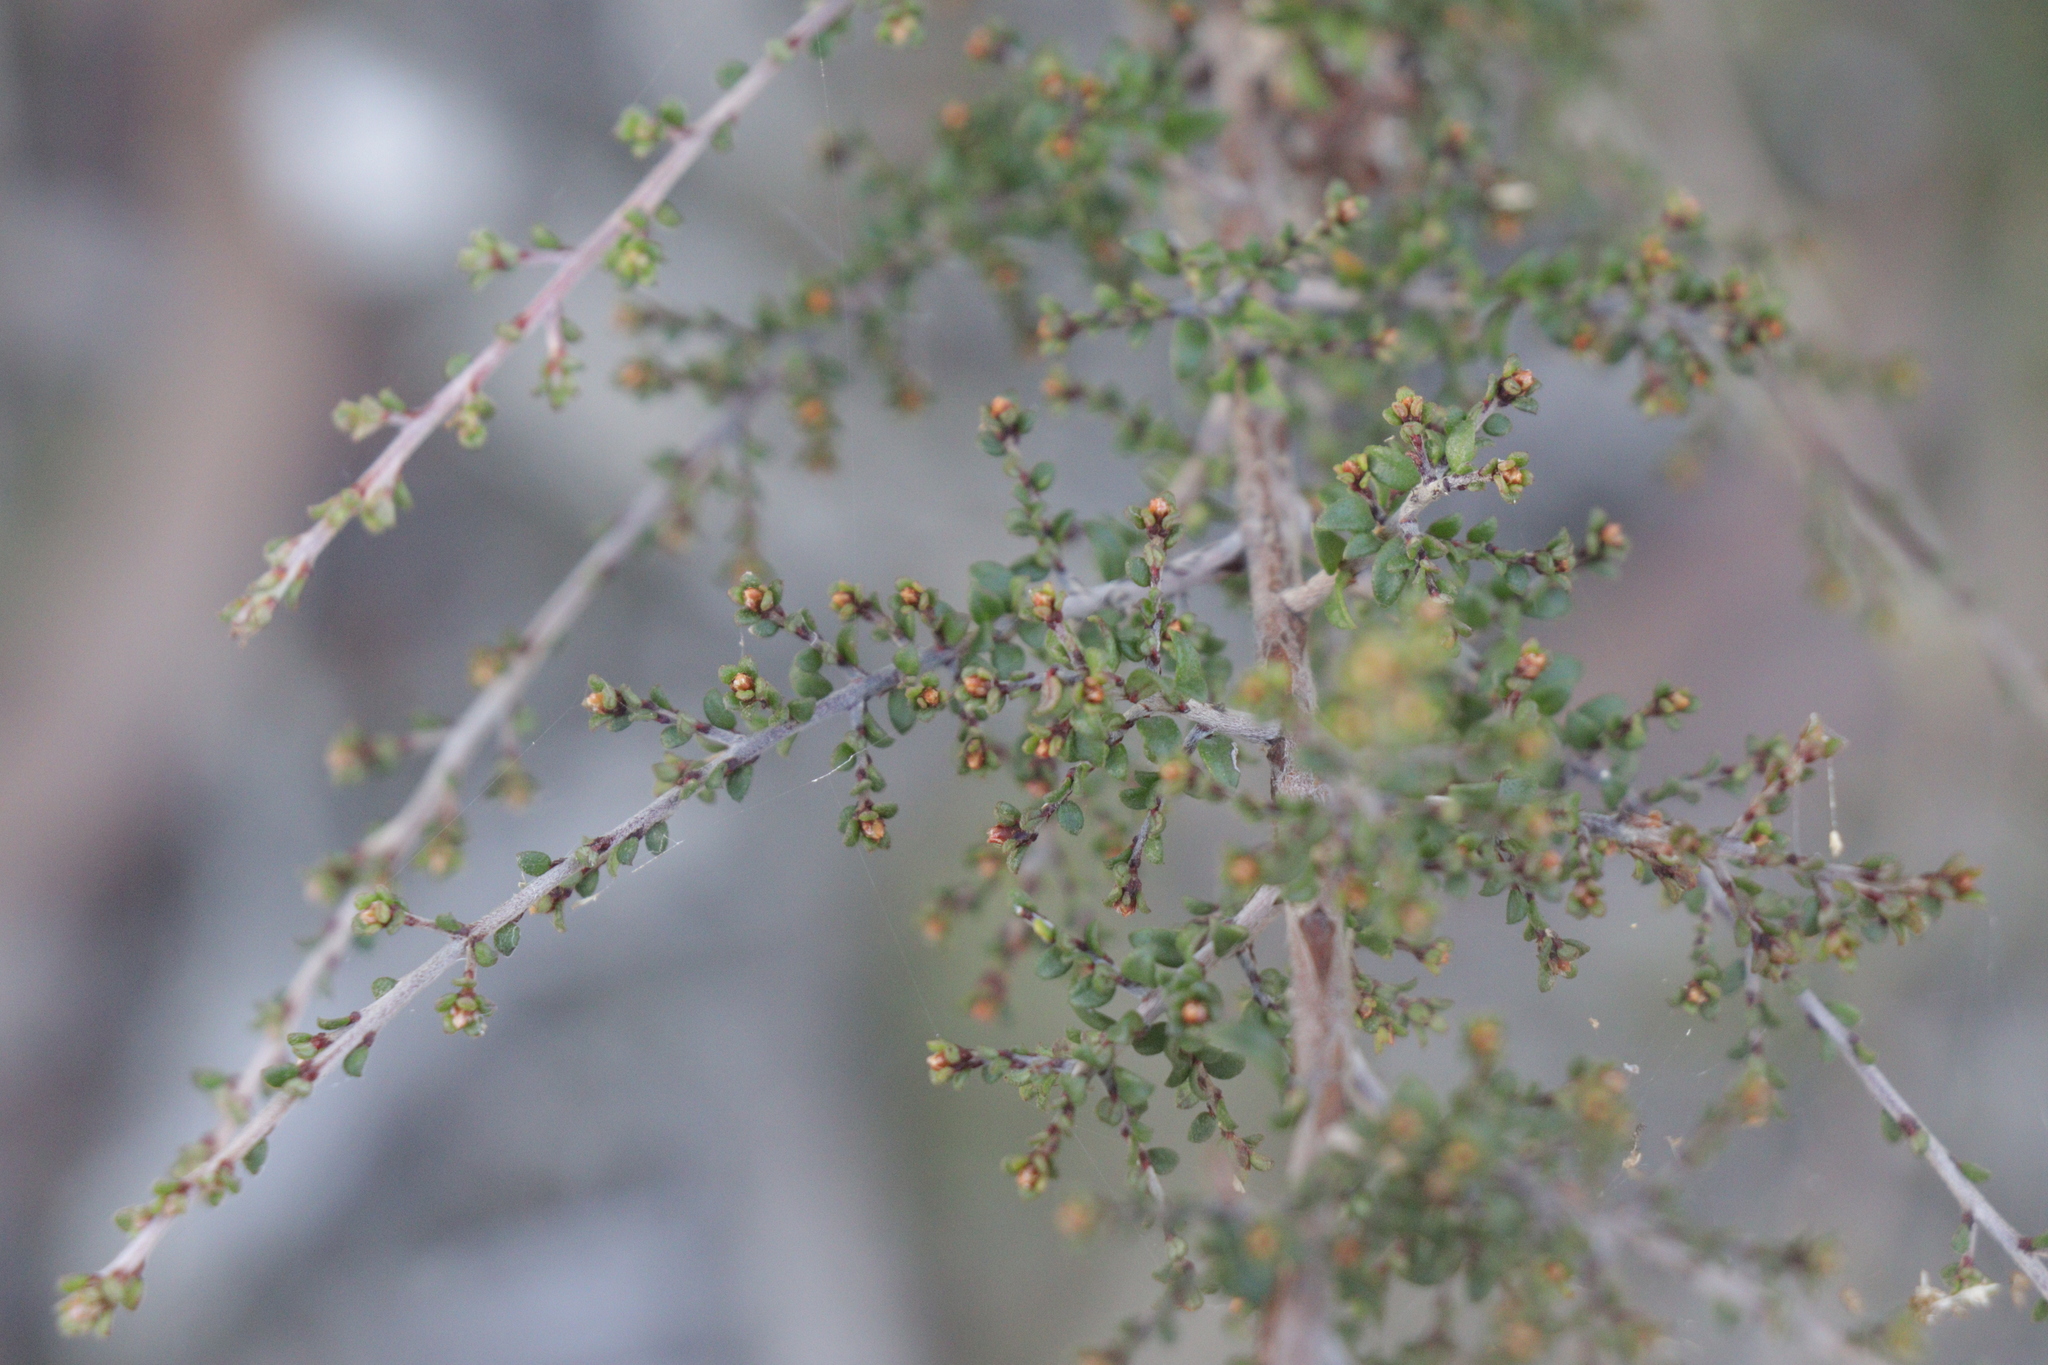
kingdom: Plantae
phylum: Tracheophyta
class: Magnoliopsida
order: Fabales
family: Fabaceae
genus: Pultenaea
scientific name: Pultenaea gunnii
